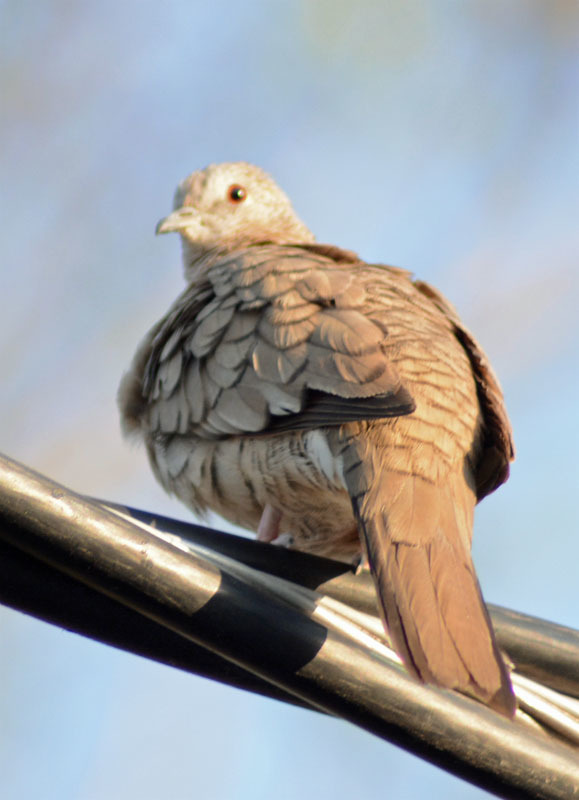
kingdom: Animalia
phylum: Chordata
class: Aves
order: Columbiformes
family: Columbidae
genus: Columbina
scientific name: Columbina inca
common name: Inca dove
